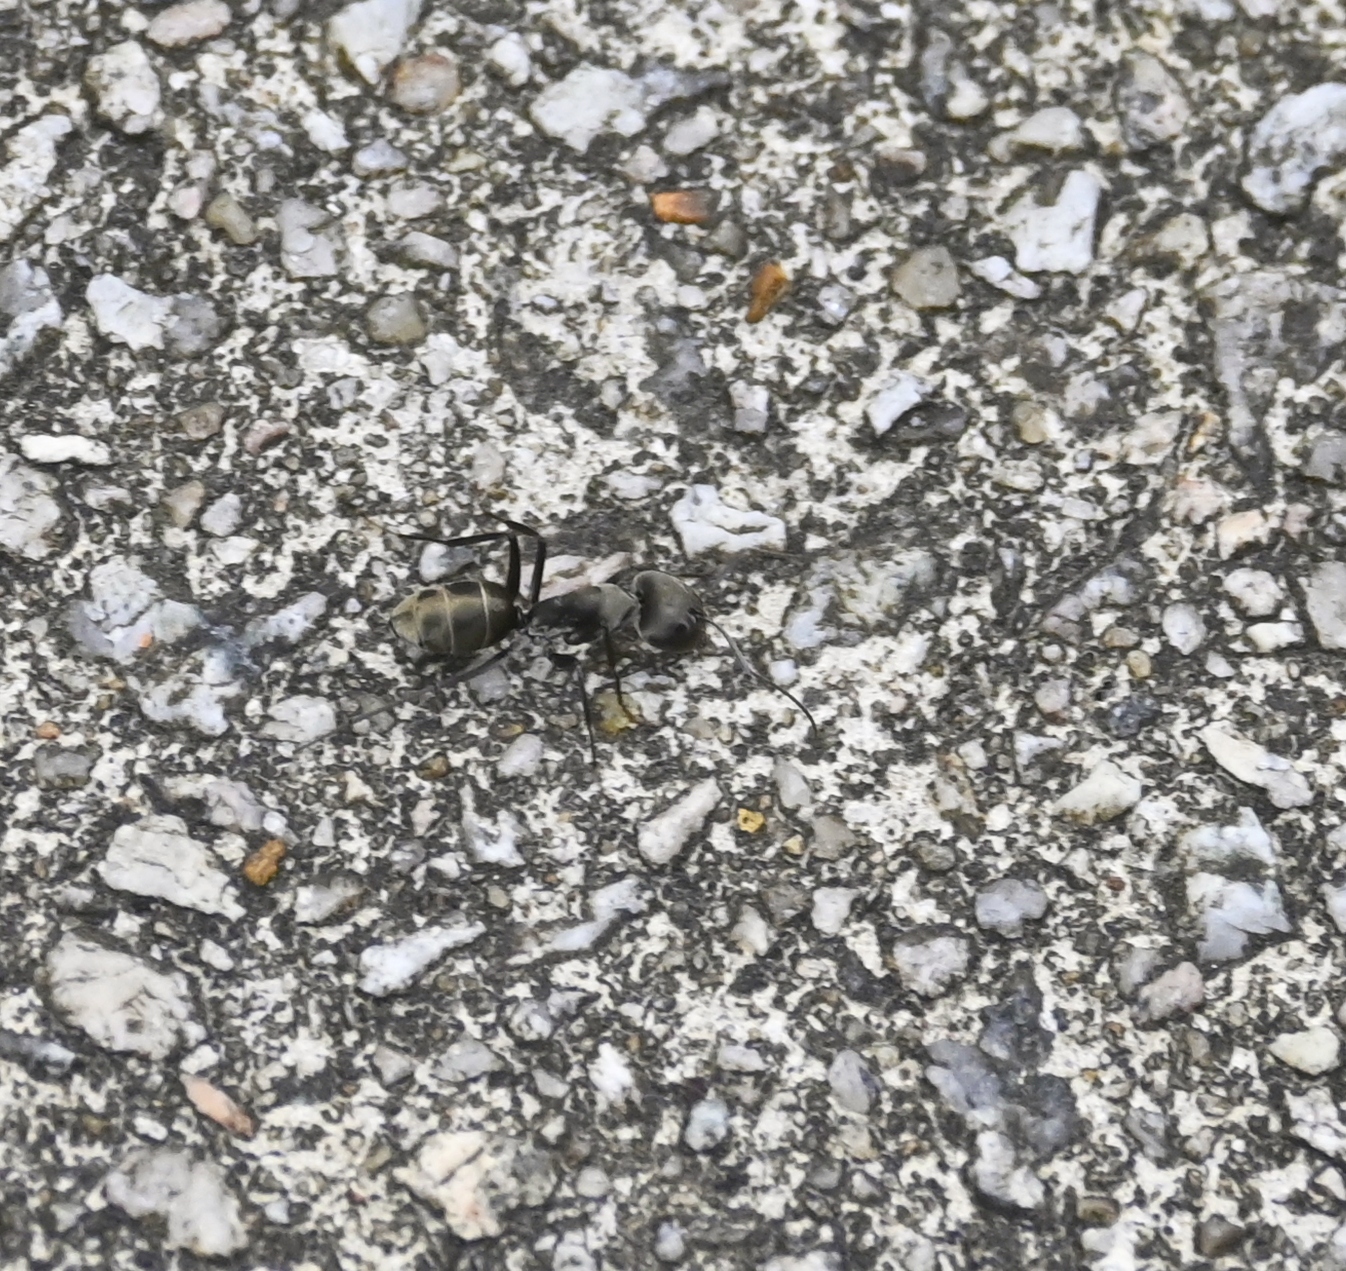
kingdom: Animalia
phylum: Arthropoda
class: Insecta
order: Hymenoptera
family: Formicidae
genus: Camponotus
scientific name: Camponotus parius
